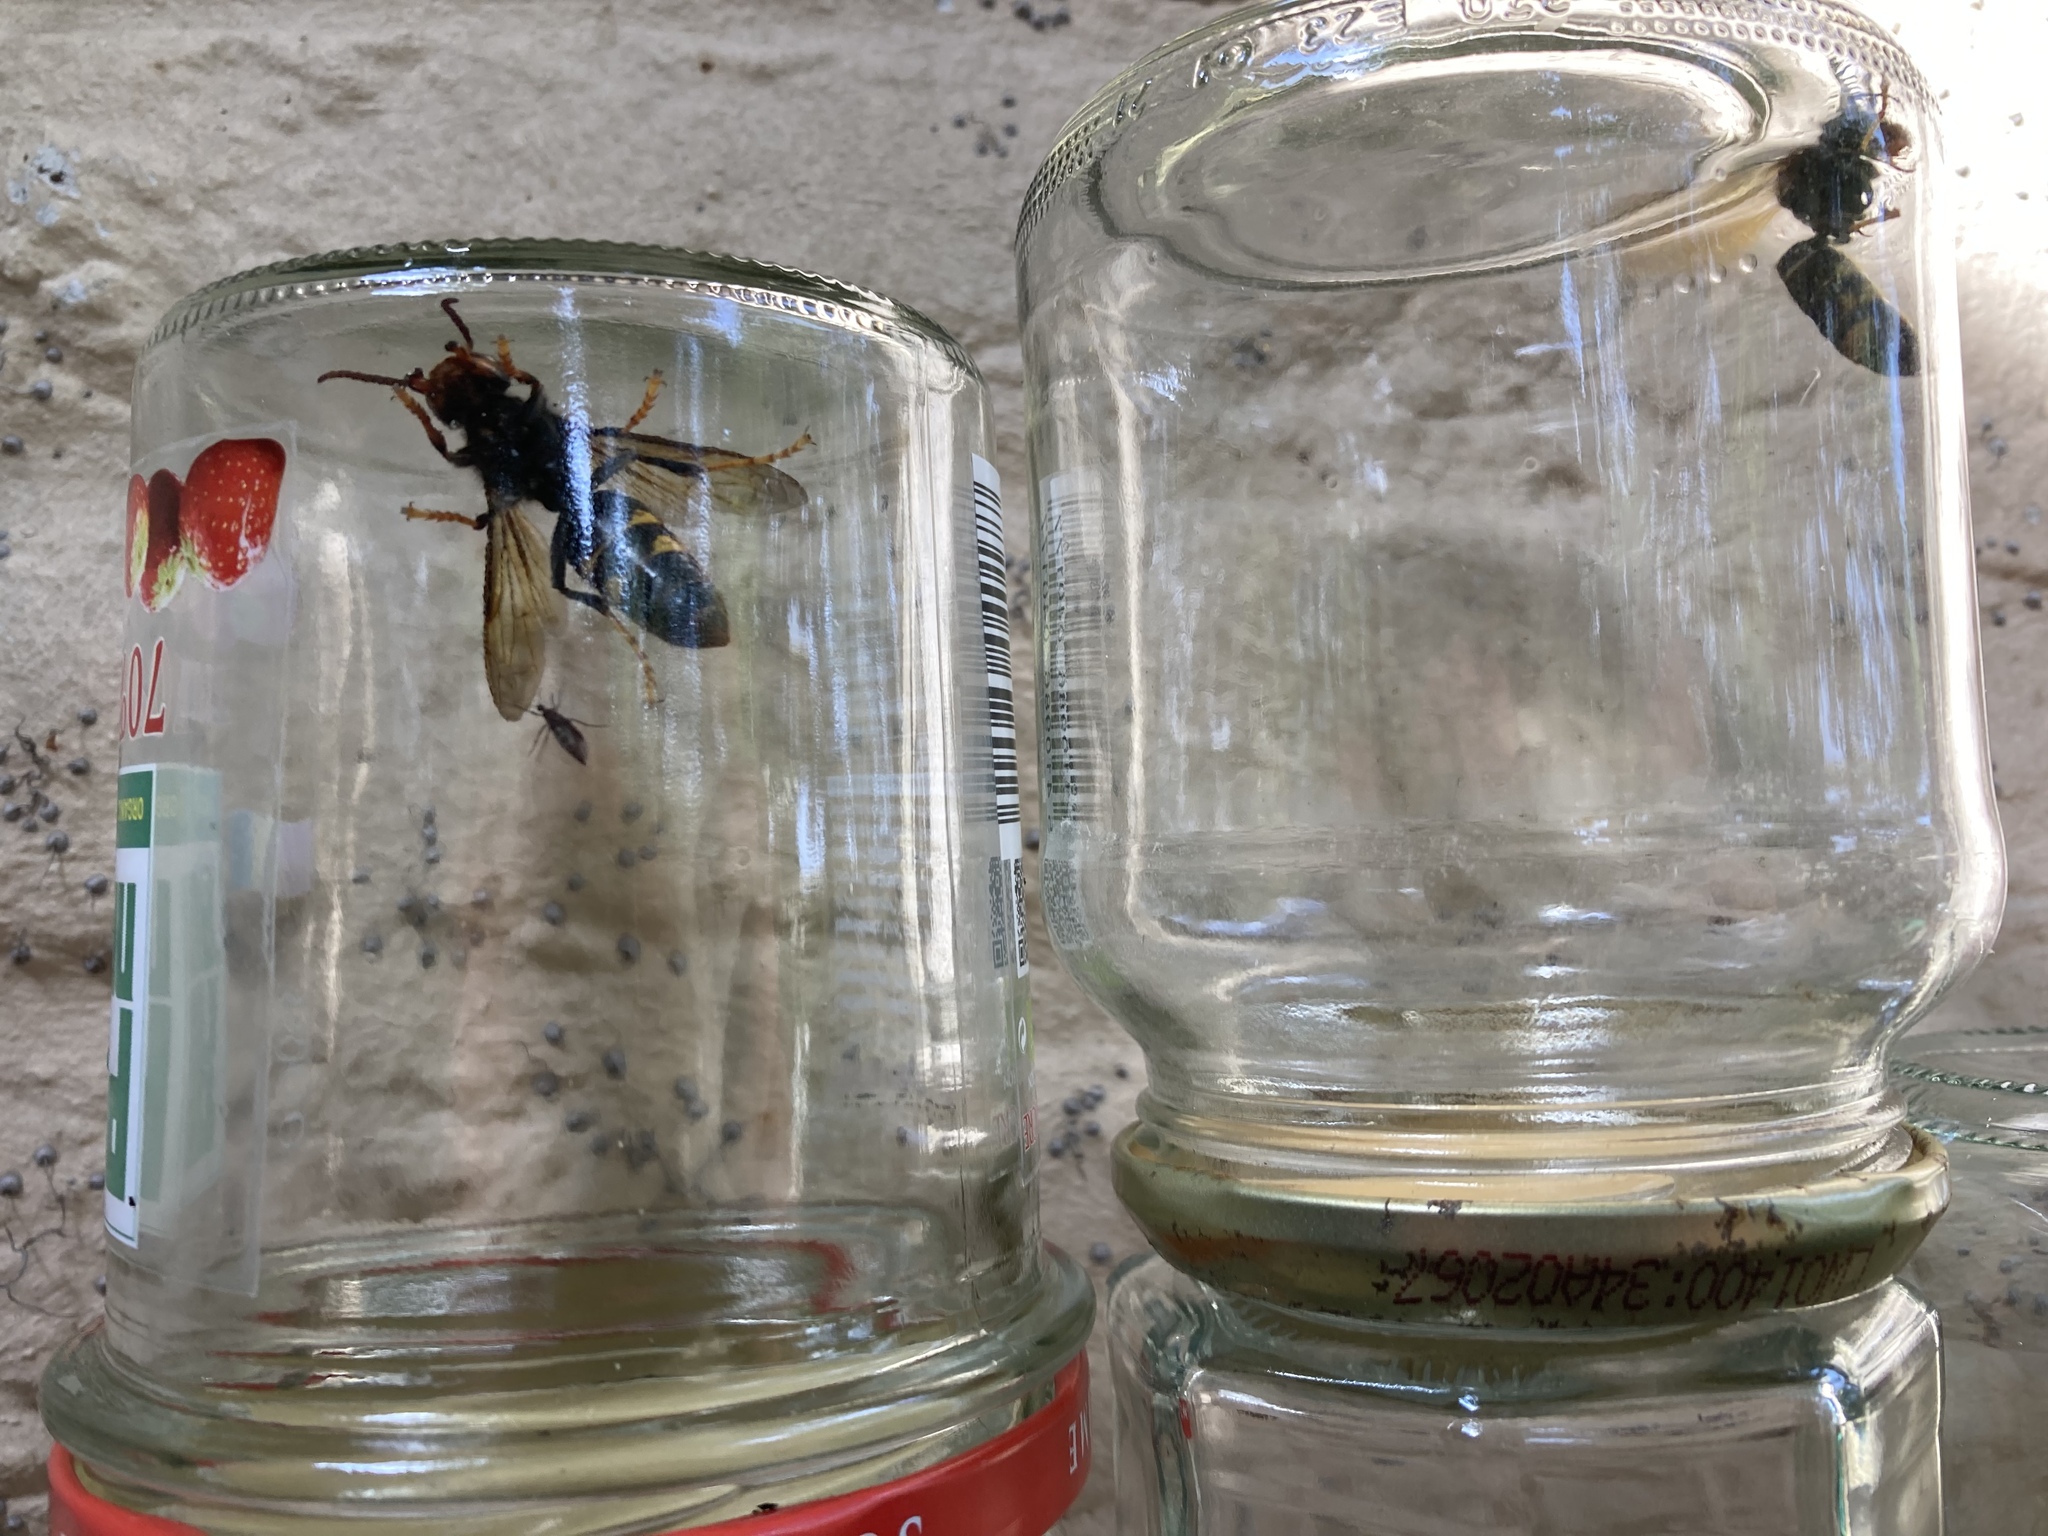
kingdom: Animalia
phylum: Arthropoda
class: Insecta
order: Hymenoptera
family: Vespidae
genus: Vespa
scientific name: Vespa velutina
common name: Asian hornet
